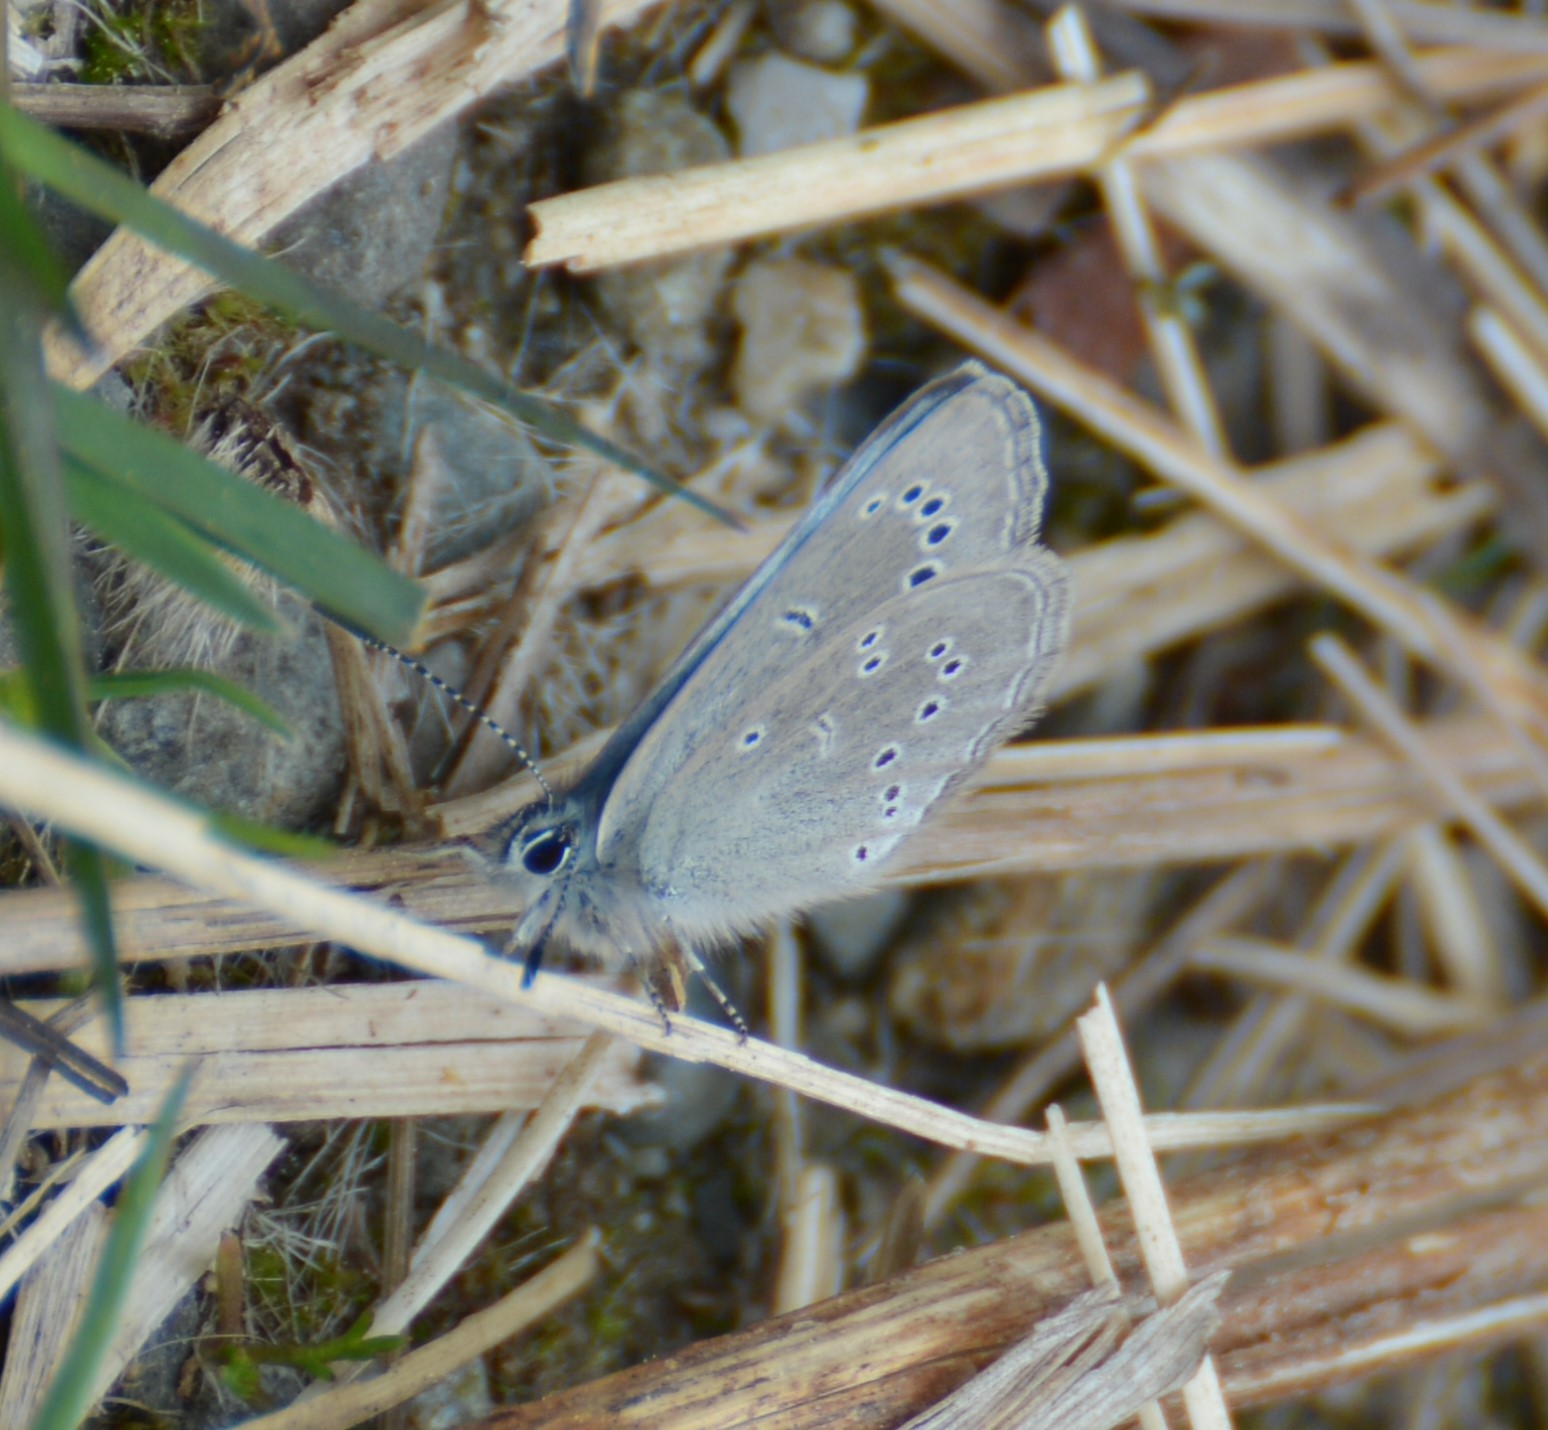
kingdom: Animalia
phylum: Arthropoda
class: Insecta
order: Lepidoptera
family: Lycaenidae
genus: Glaucopsyche
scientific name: Glaucopsyche lygdamus
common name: Silvery blue
